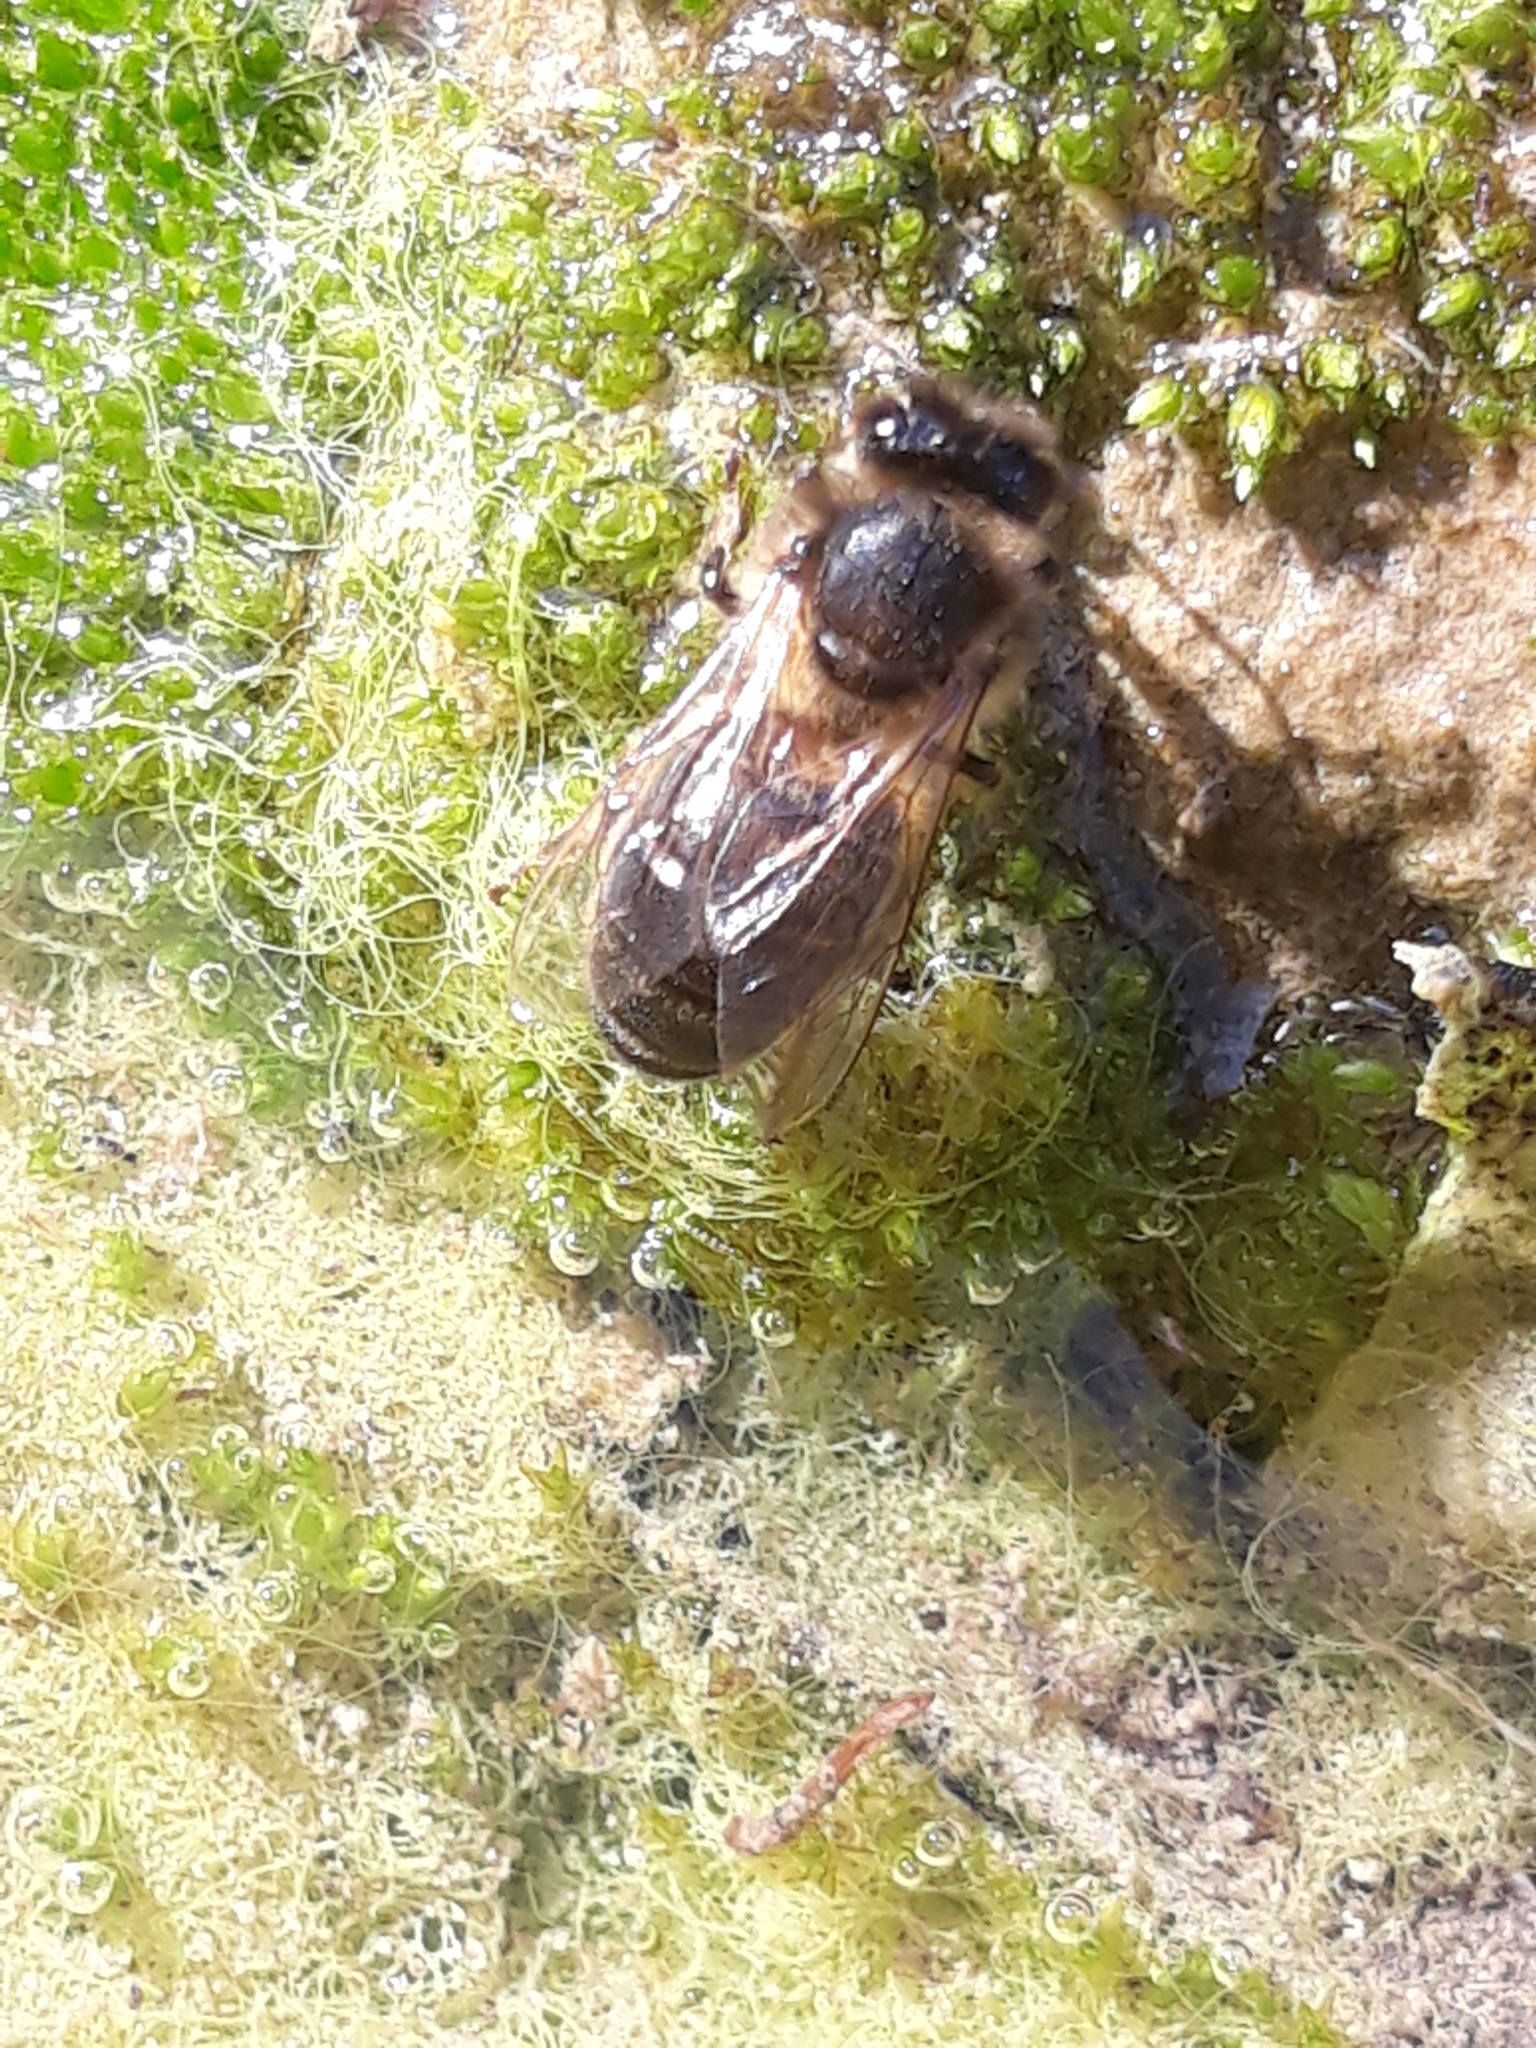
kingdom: Animalia
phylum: Arthropoda
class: Insecta
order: Hymenoptera
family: Apidae
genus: Apis
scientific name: Apis mellifera
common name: Honey bee
